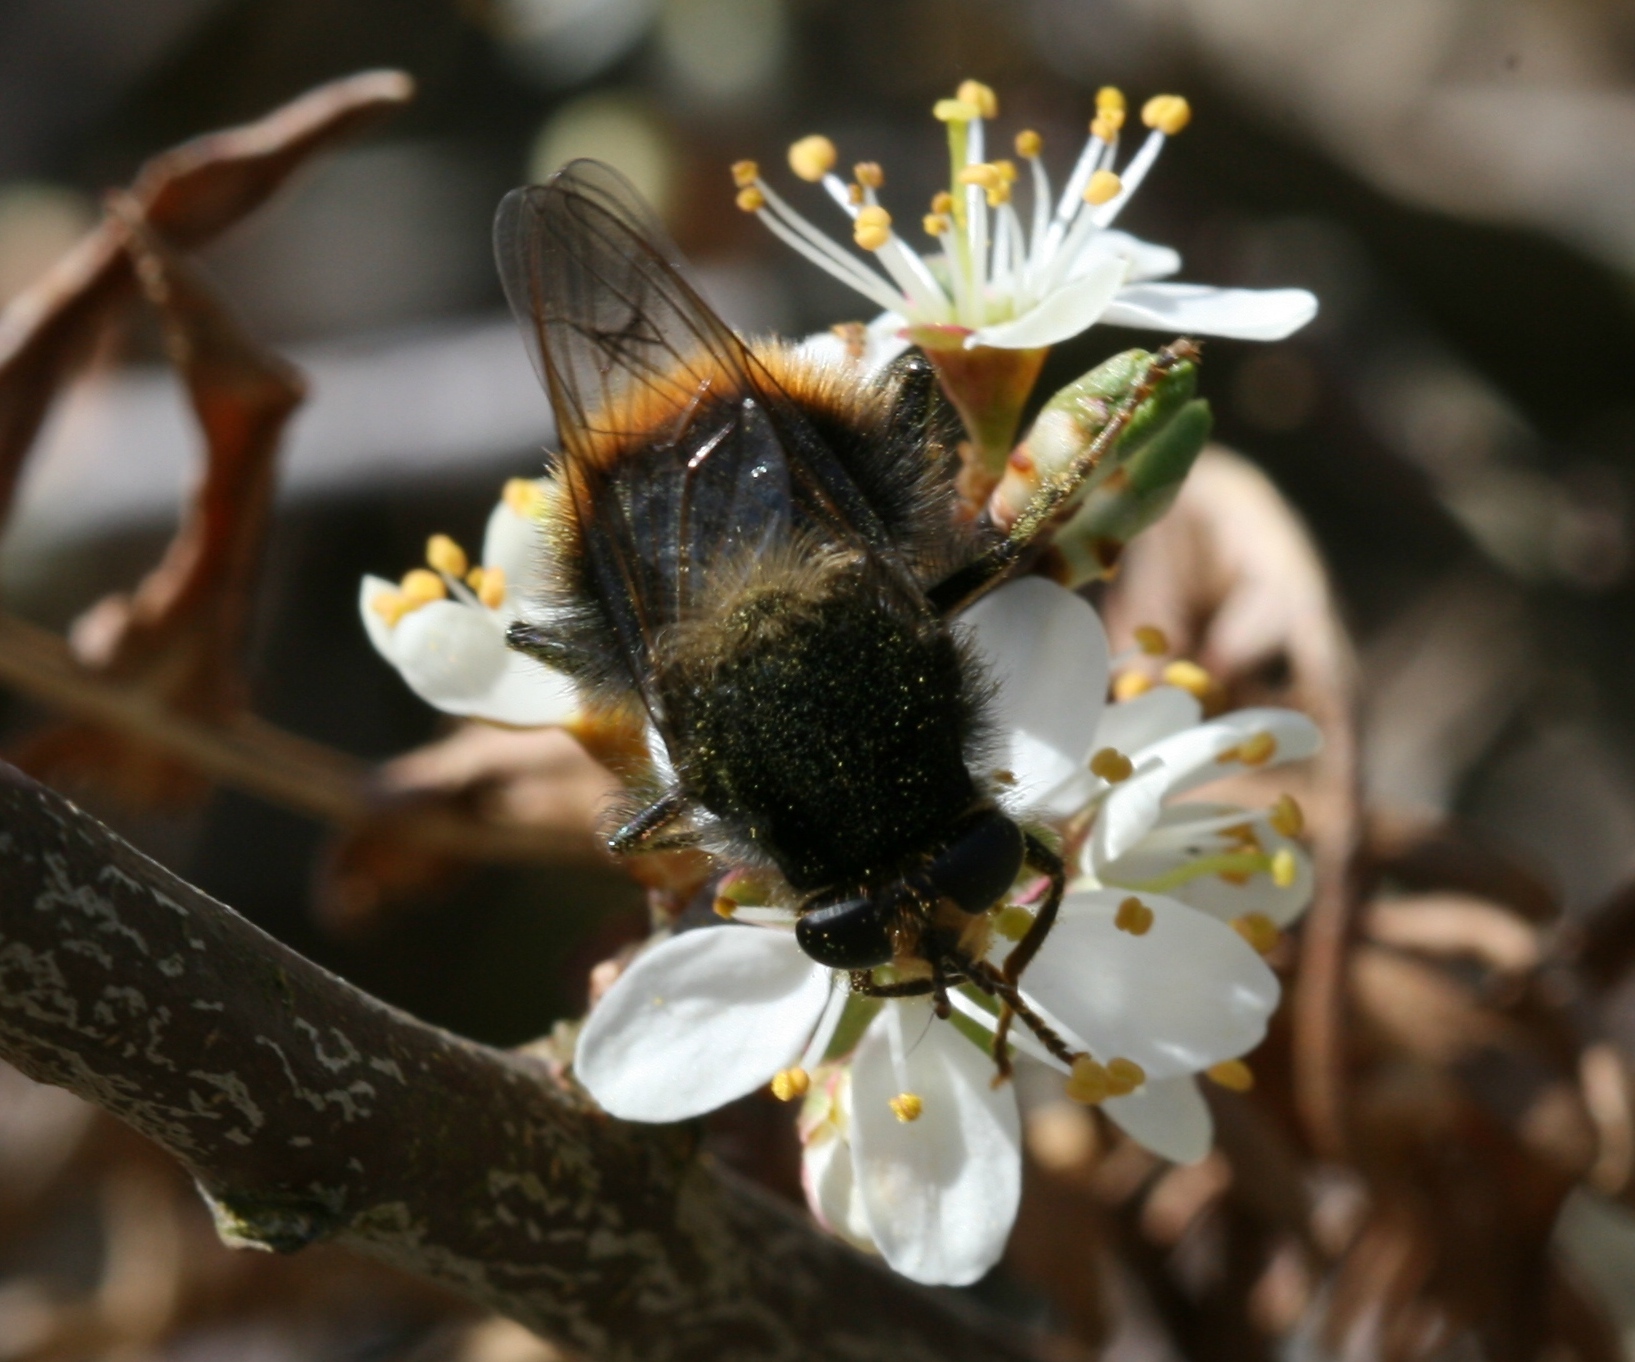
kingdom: Animalia
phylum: Arthropoda
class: Insecta
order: Diptera
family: Syrphidae
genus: Criorhina
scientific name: Criorhina ranunculi
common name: Large bear hoverfly
